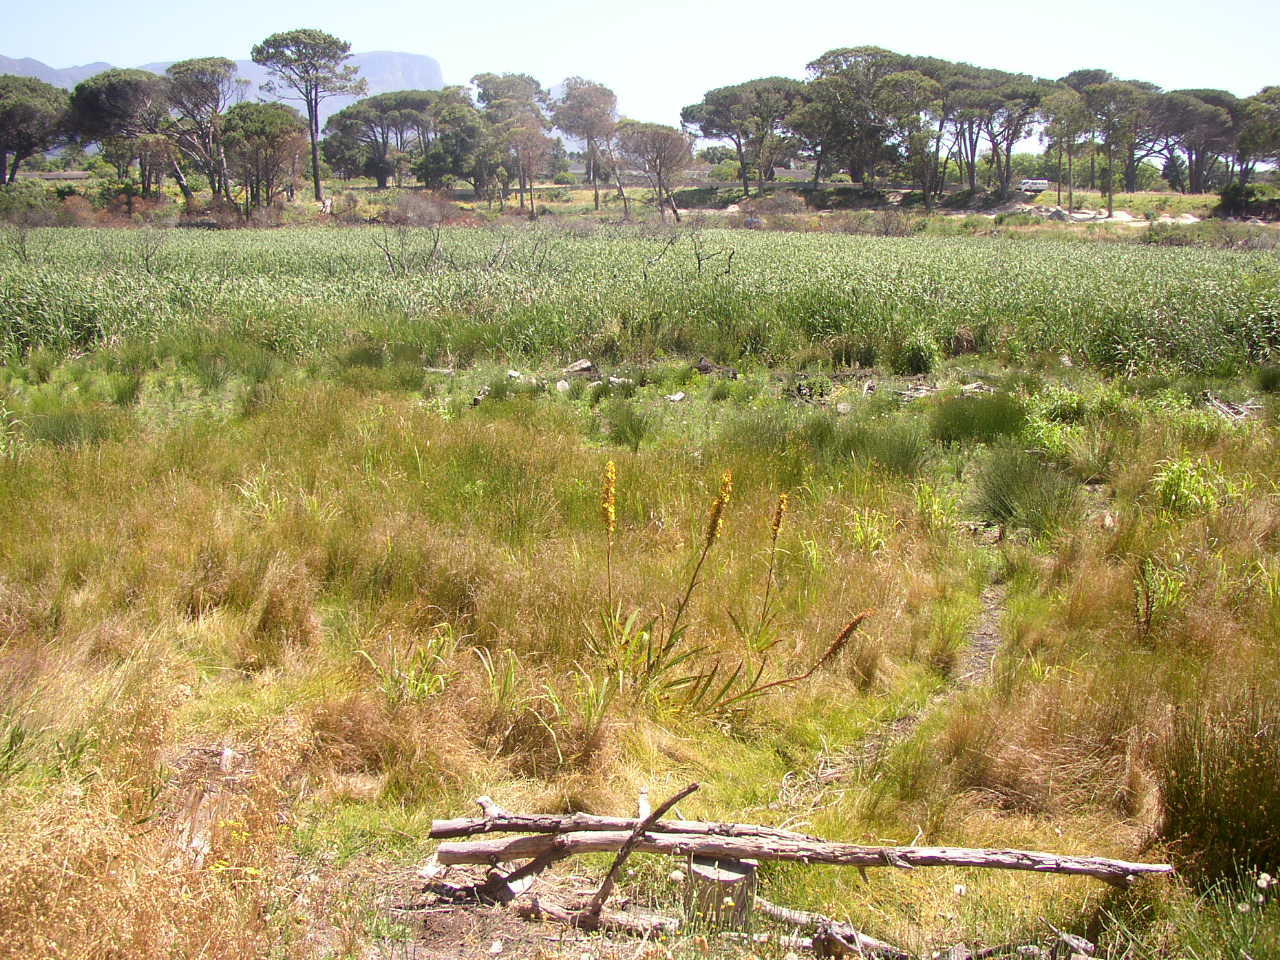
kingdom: Plantae
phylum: Tracheophyta
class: Liliopsida
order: Commelinales
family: Haemodoraceae
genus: Wachendorfia
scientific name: Wachendorfia thyrsiflora
